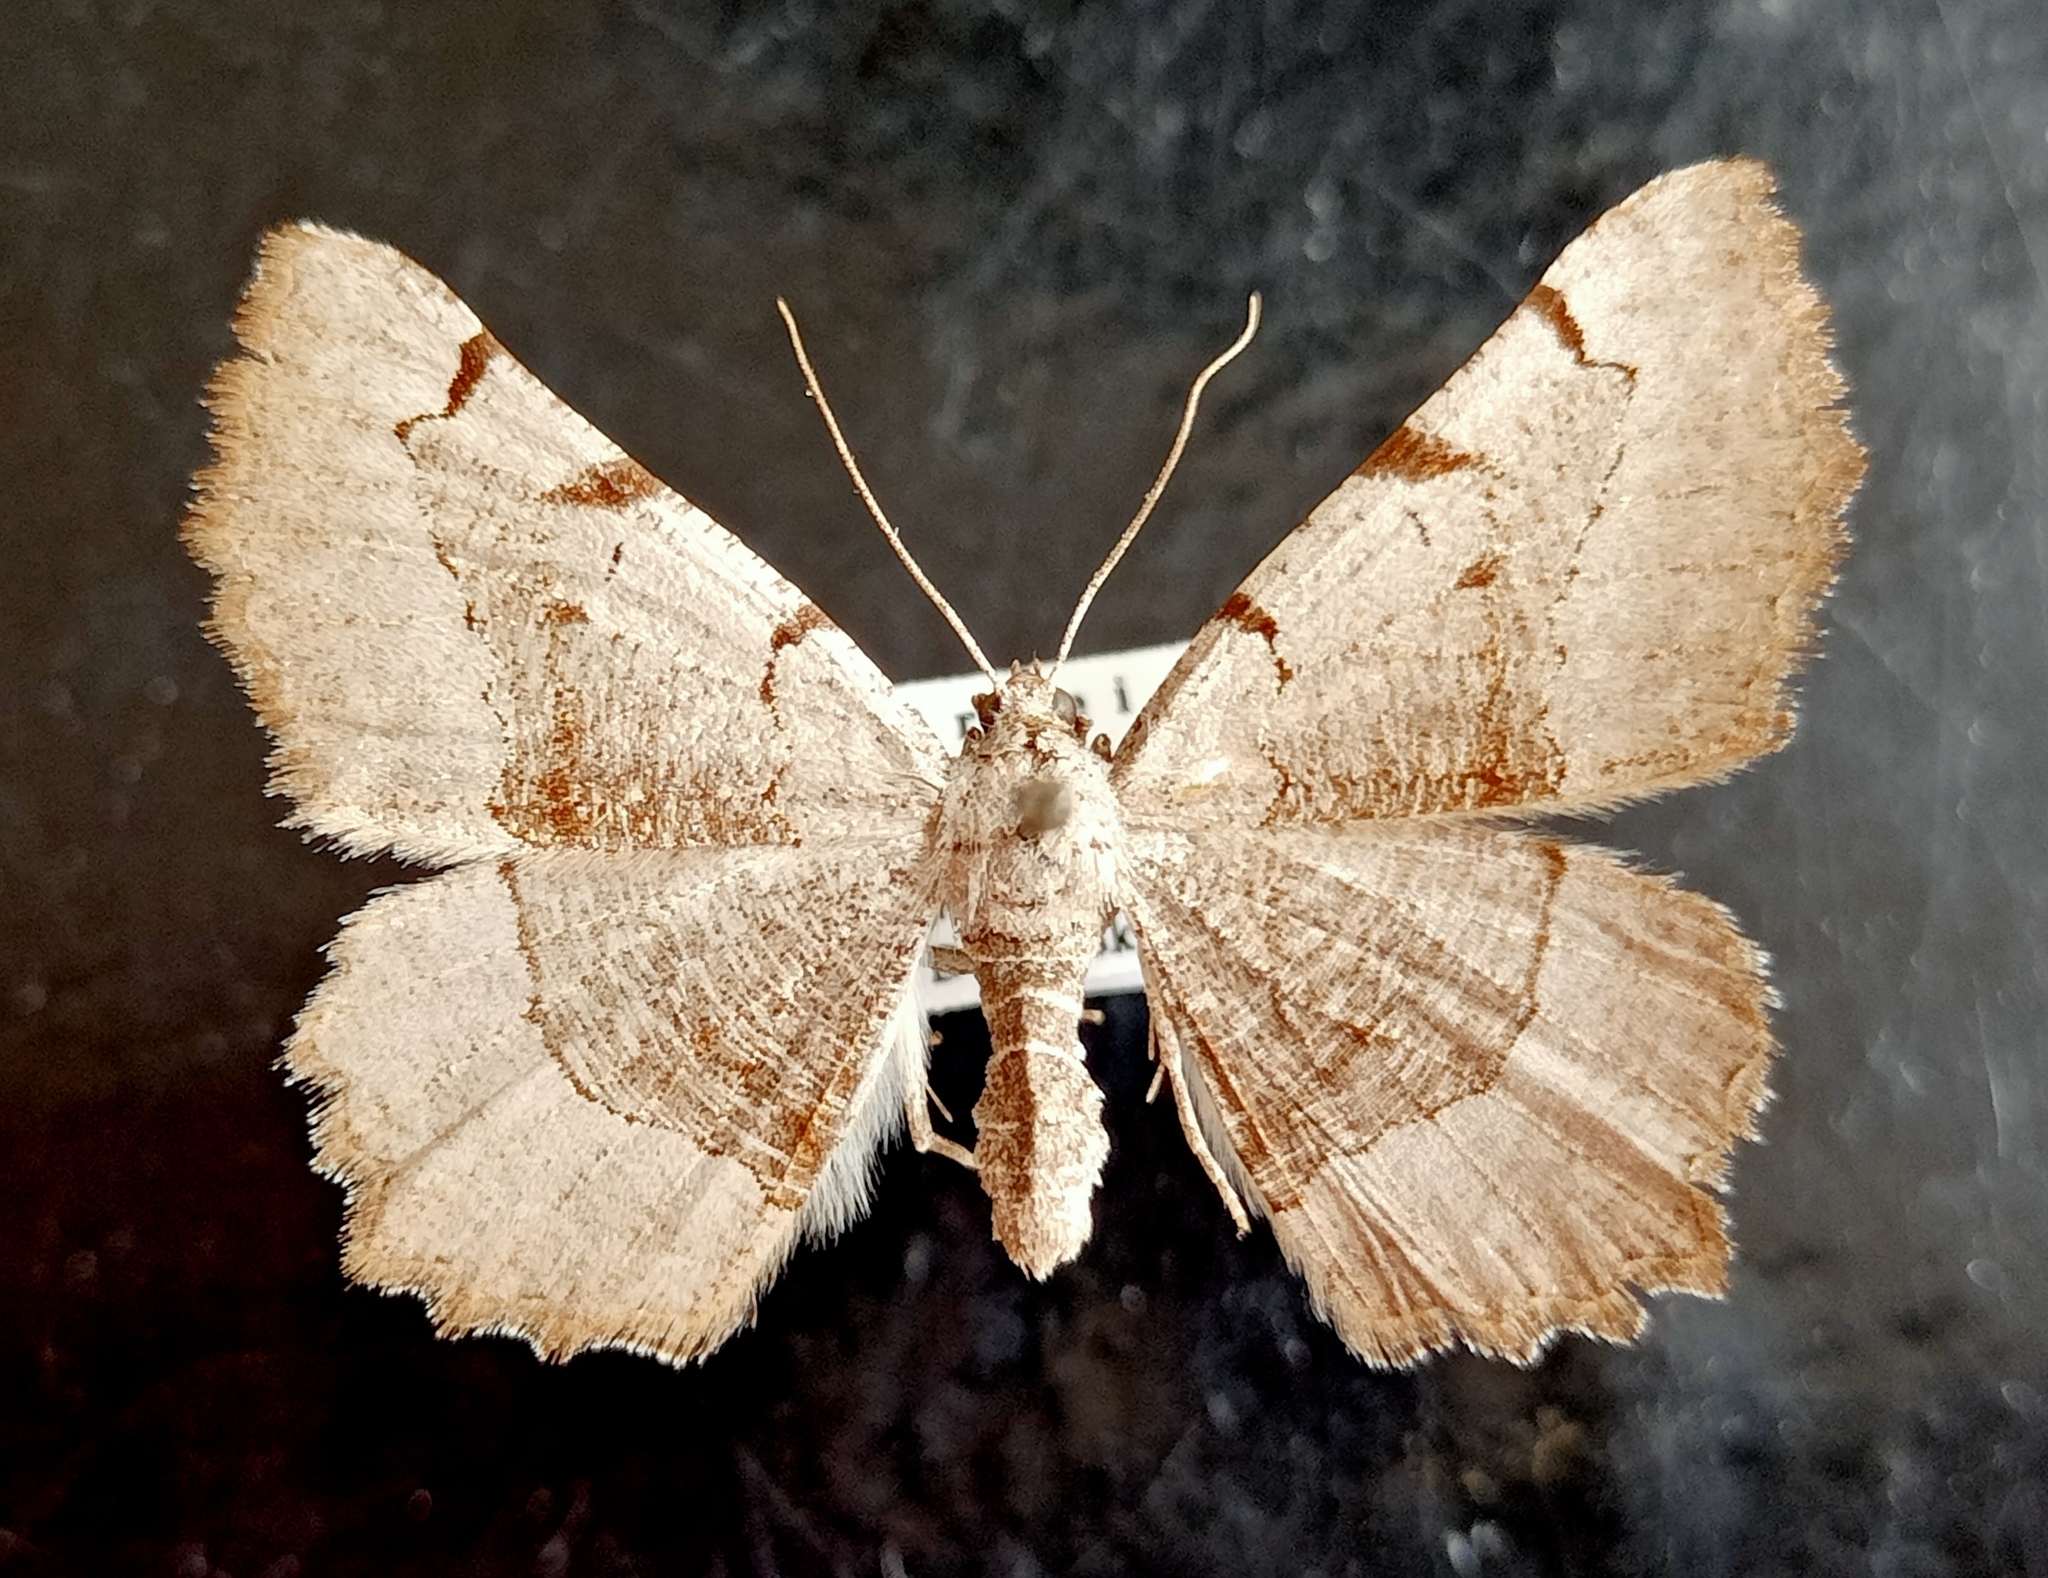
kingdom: Animalia
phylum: Arthropoda
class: Insecta
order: Lepidoptera
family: Geometridae
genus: Neognopharmia
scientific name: Neognopharmia stevenaria
